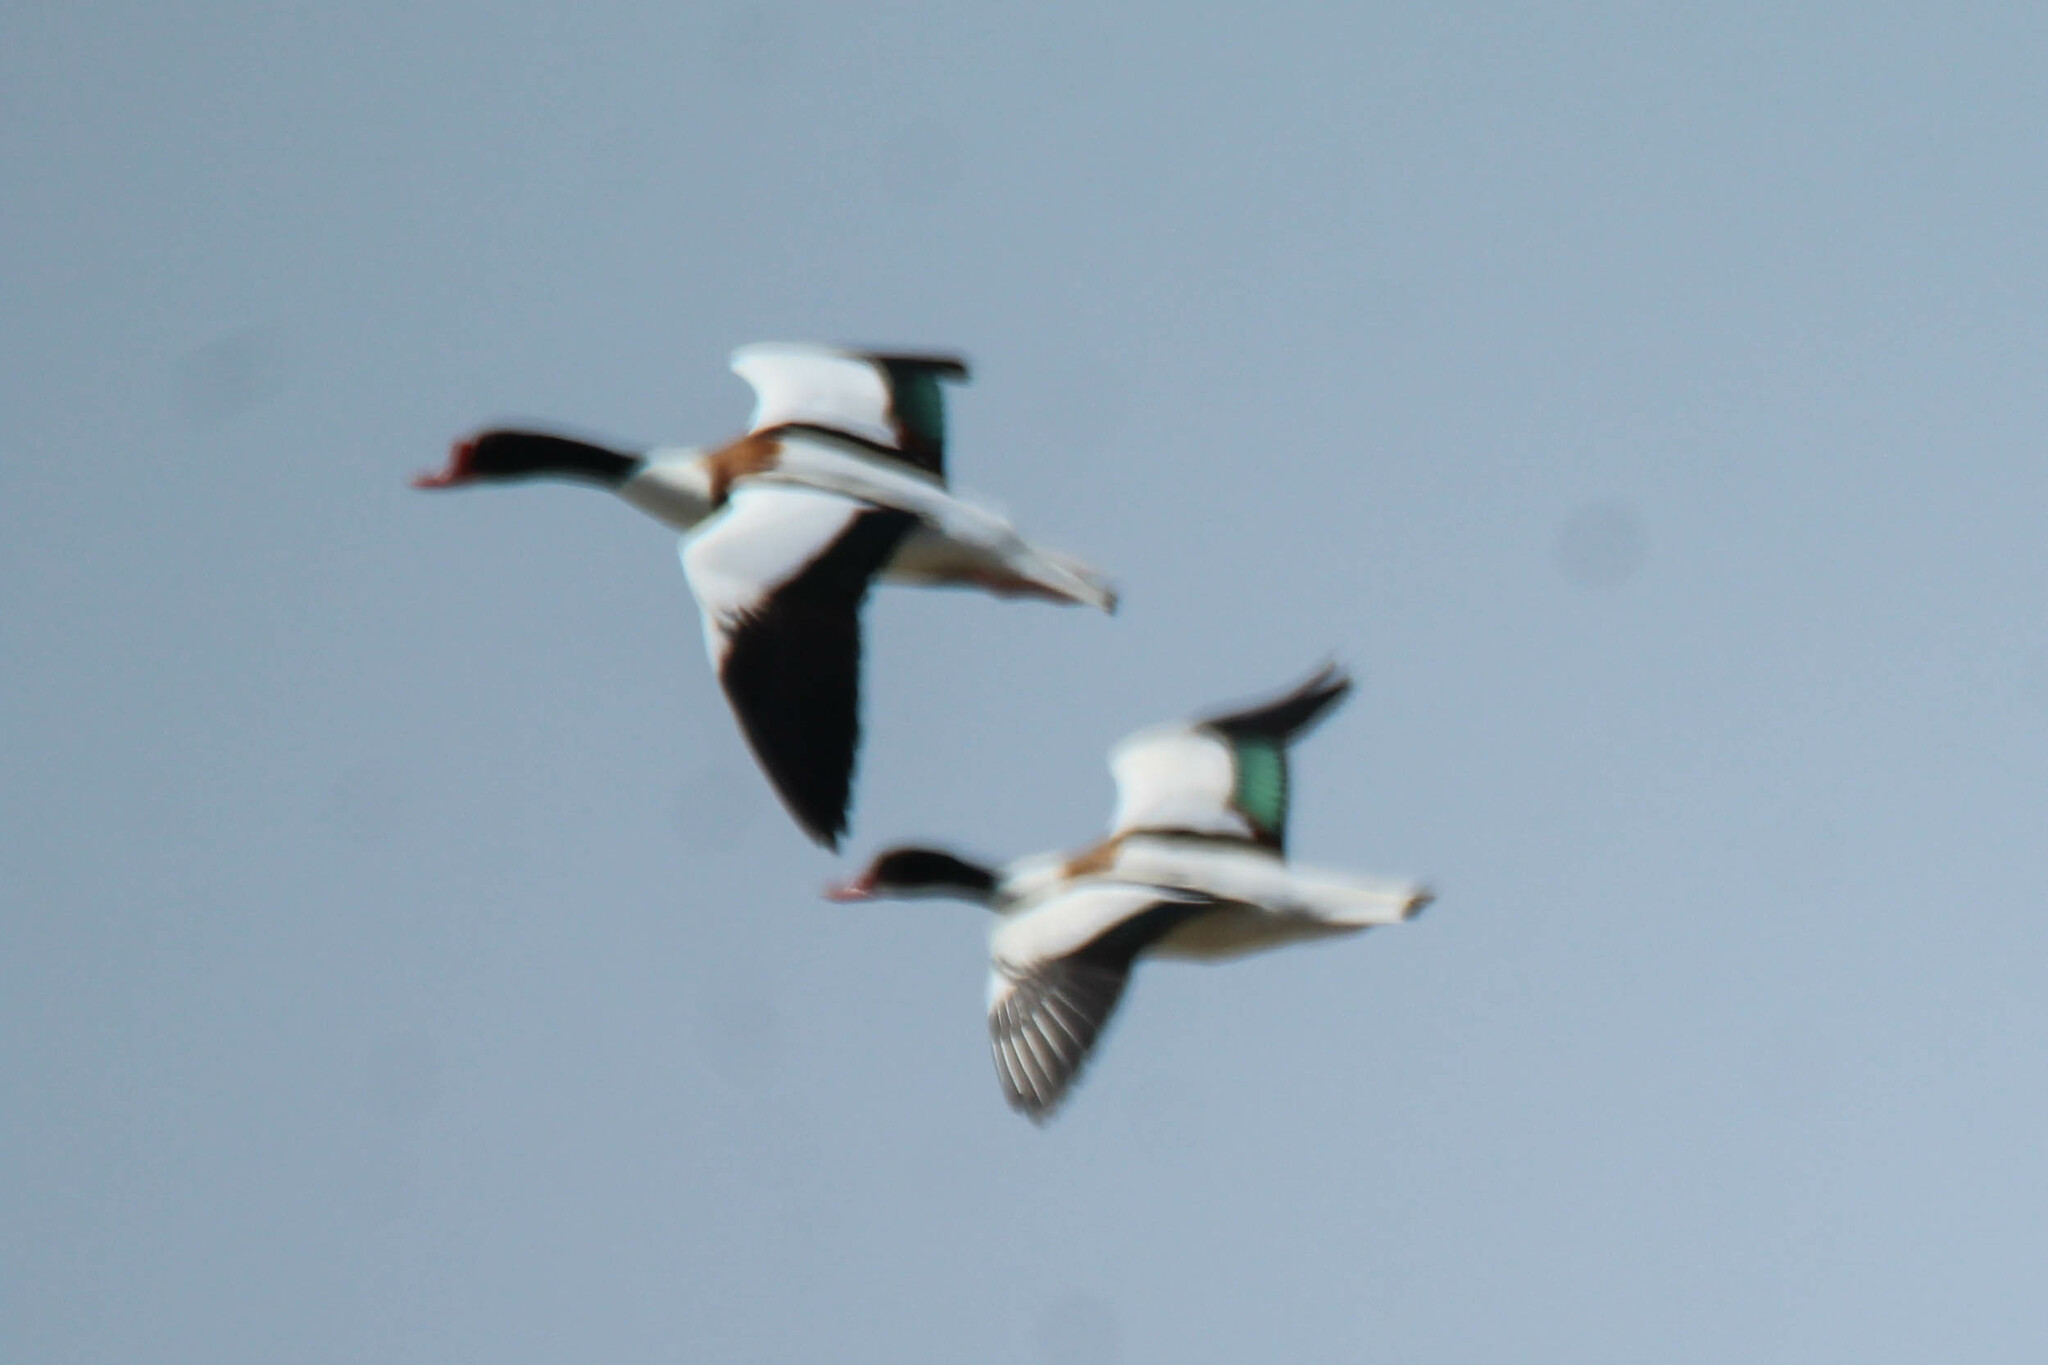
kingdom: Animalia
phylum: Chordata
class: Aves
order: Anseriformes
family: Anatidae
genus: Tadorna
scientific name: Tadorna tadorna
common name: Common shelduck
